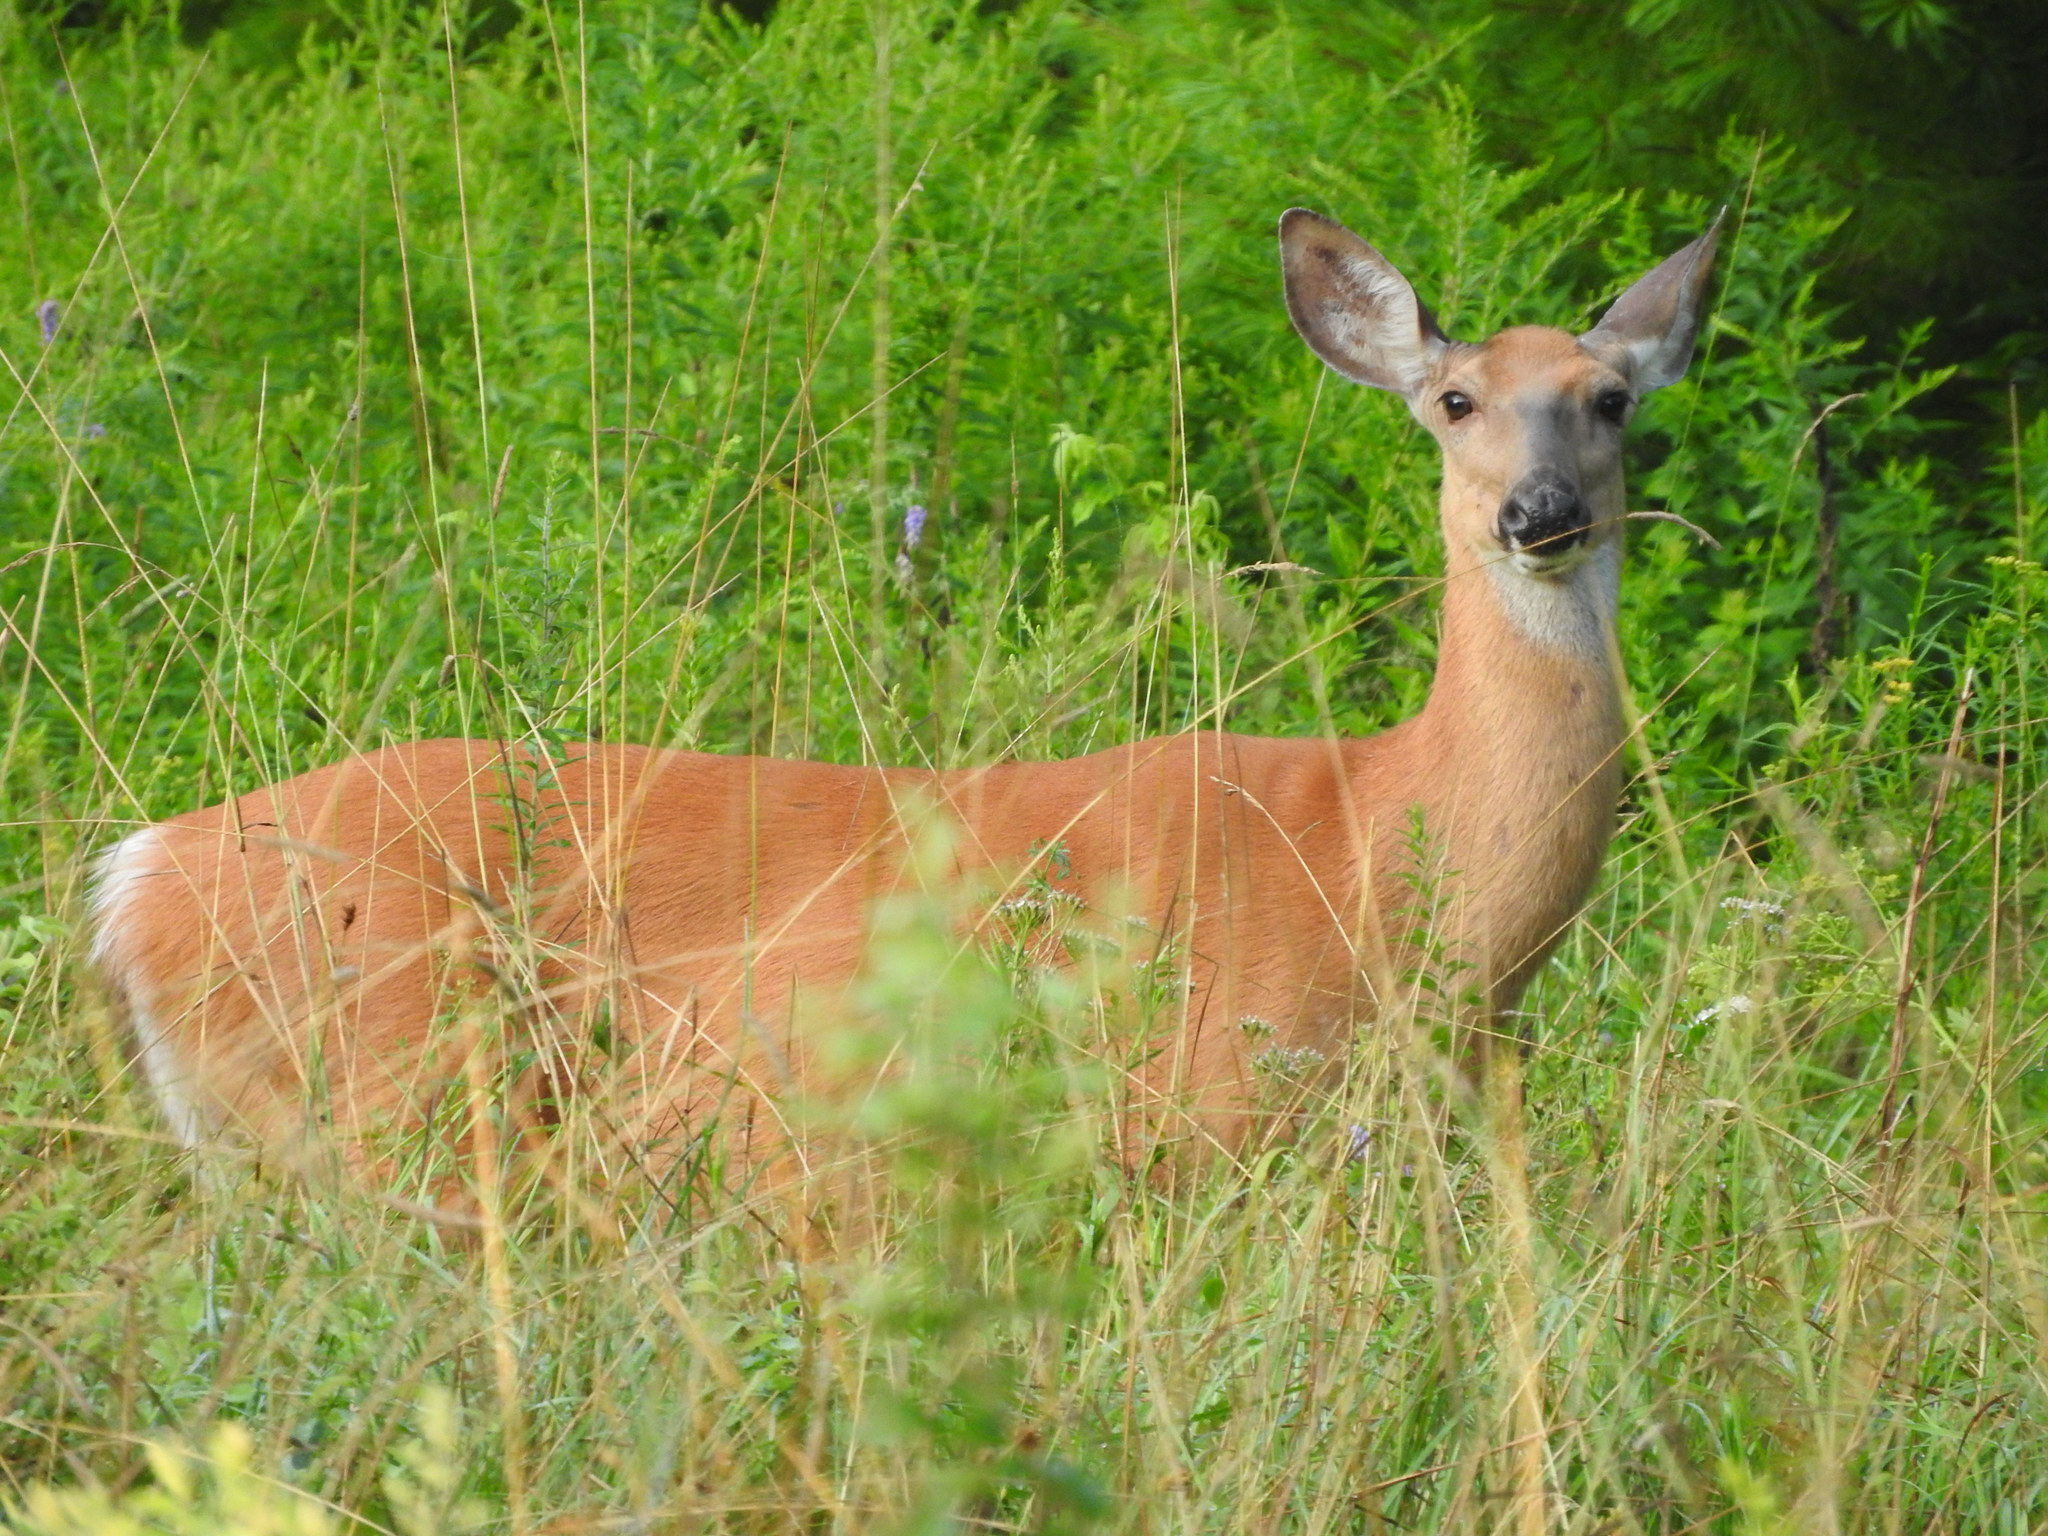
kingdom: Animalia
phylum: Chordata
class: Mammalia
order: Artiodactyla
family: Cervidae
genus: Odocoileus
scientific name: Odocoileus virginianus
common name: White-tailed deer
